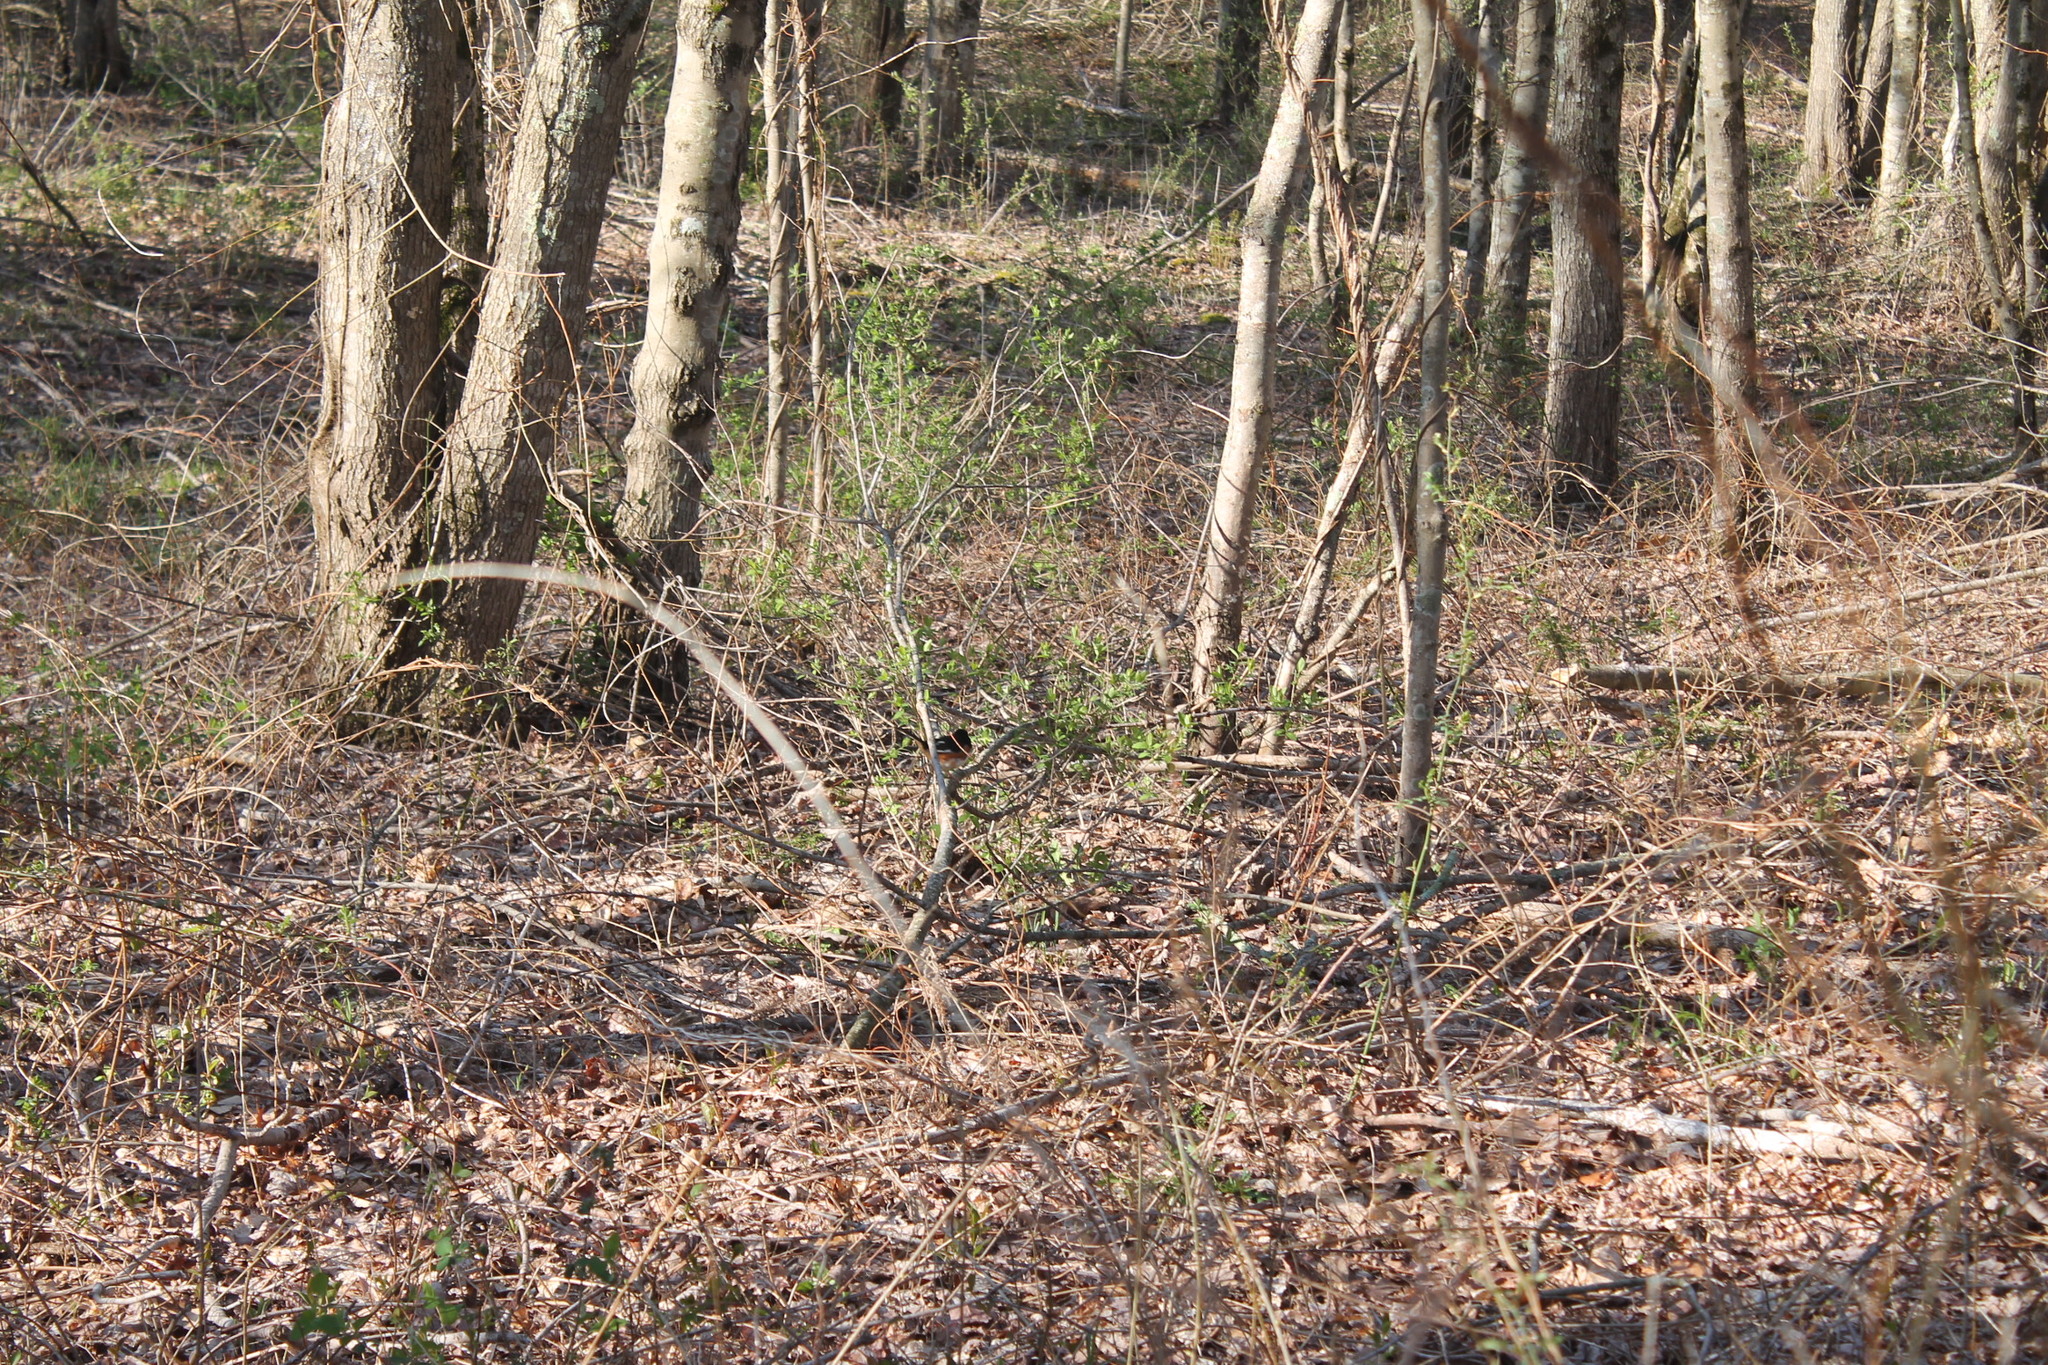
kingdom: Animalia
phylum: Chordata
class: Aves
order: Passeriformes
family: Passerellidae
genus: Pipilo
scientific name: Pipilo erythrophthalmus
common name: Eastern towhee
